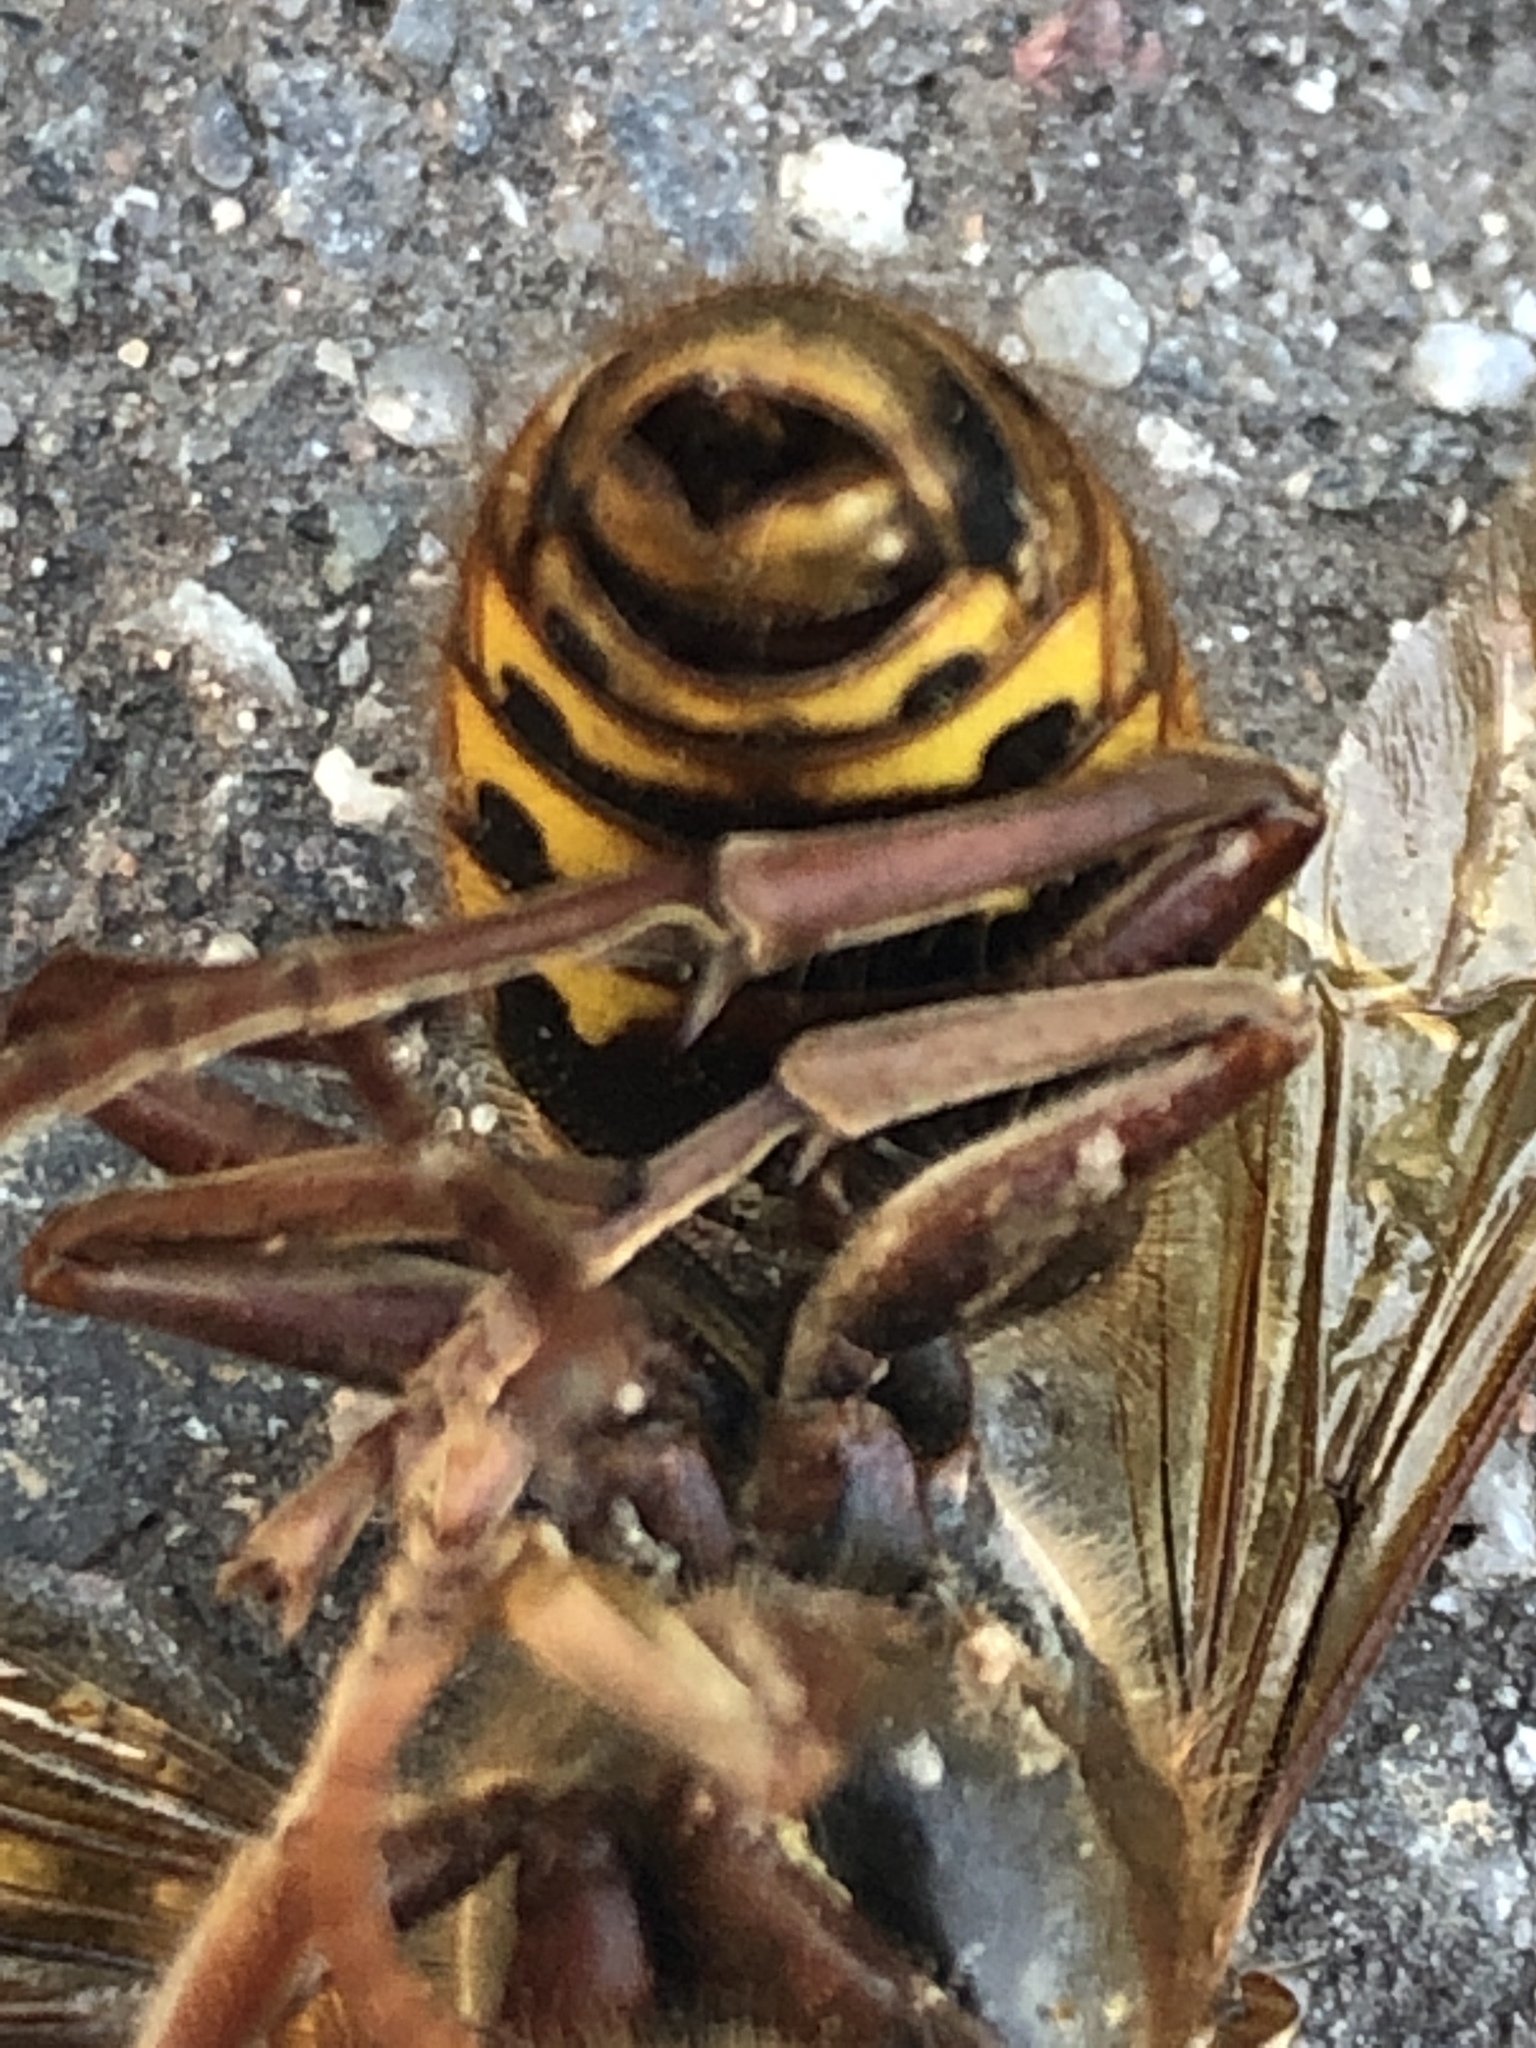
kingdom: Animalia
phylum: Arthropoda
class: Insecta
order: Hymenoptera
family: Vespidae
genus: Vespa
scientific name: Vespa crabro
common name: Hornet
